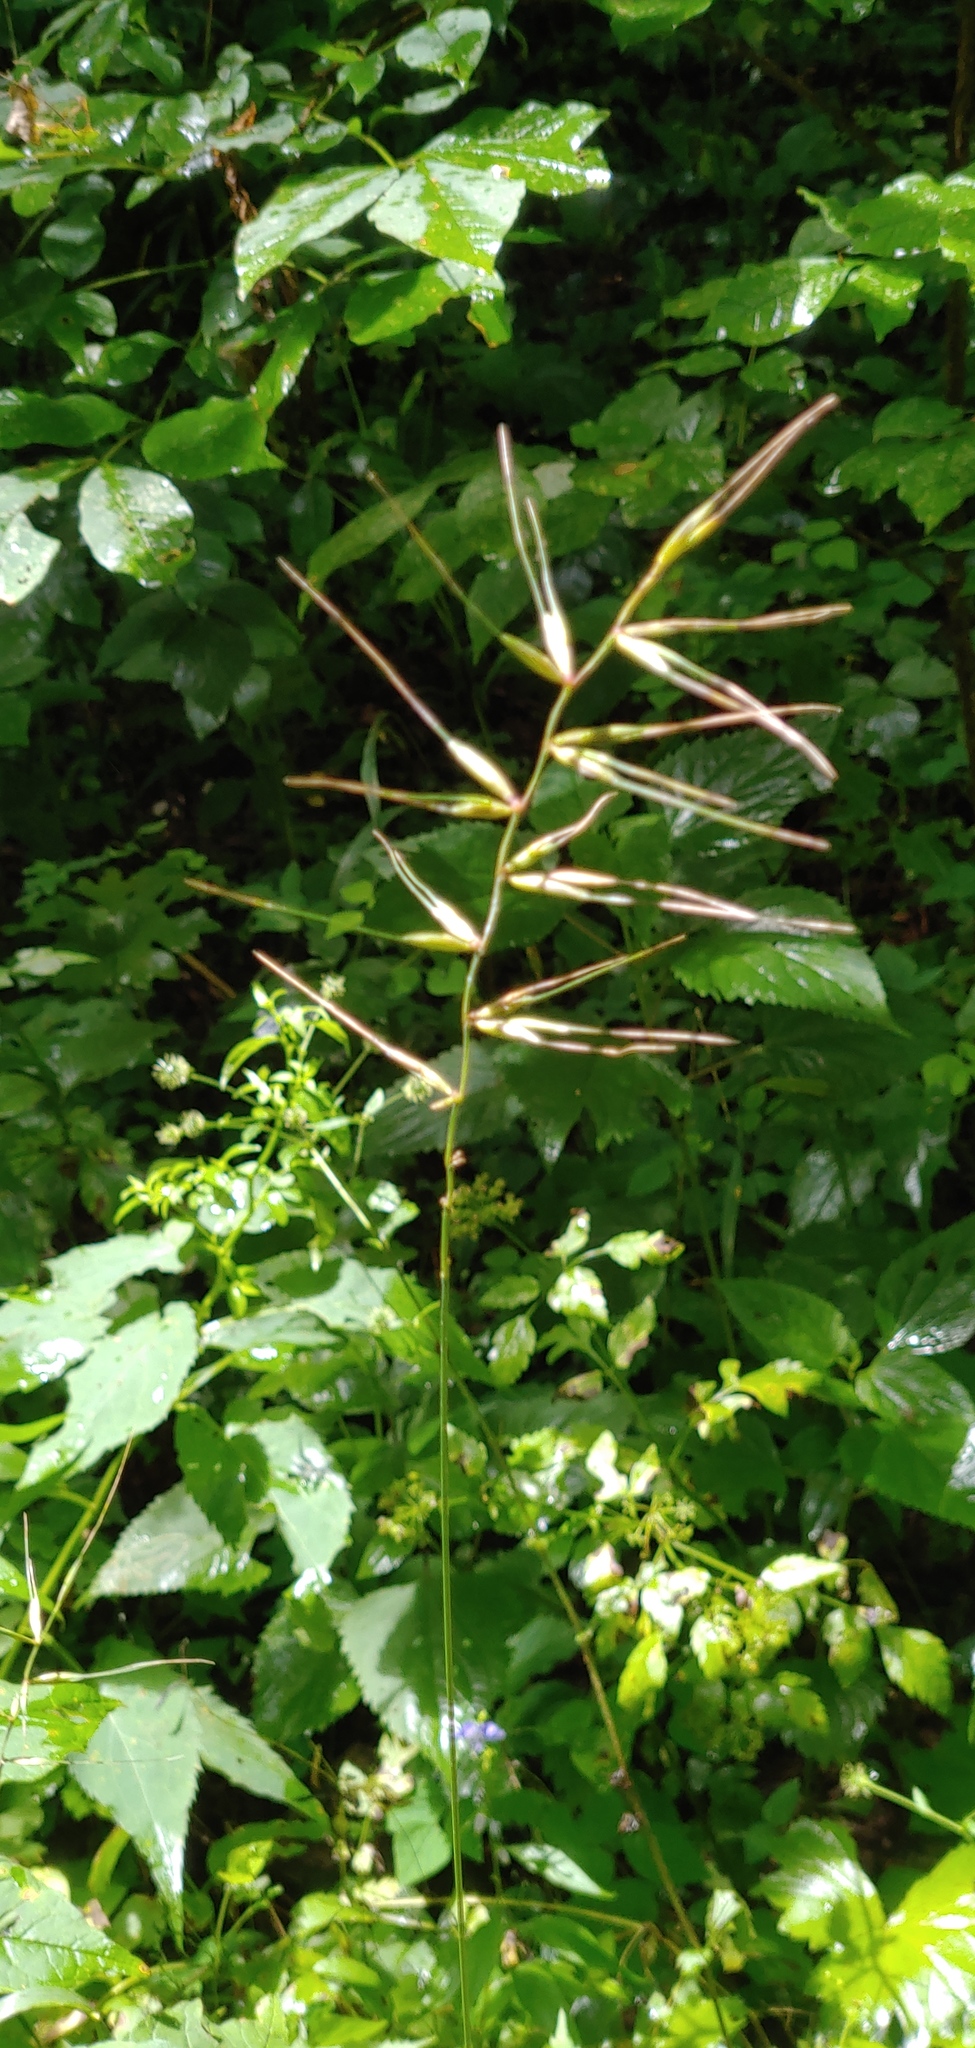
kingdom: Plantae
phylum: Tracheophyta
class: Liliopsida
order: Poales
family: Poaceae
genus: Elymus
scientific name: Elymus hystrix
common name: Bottlebrush grass
